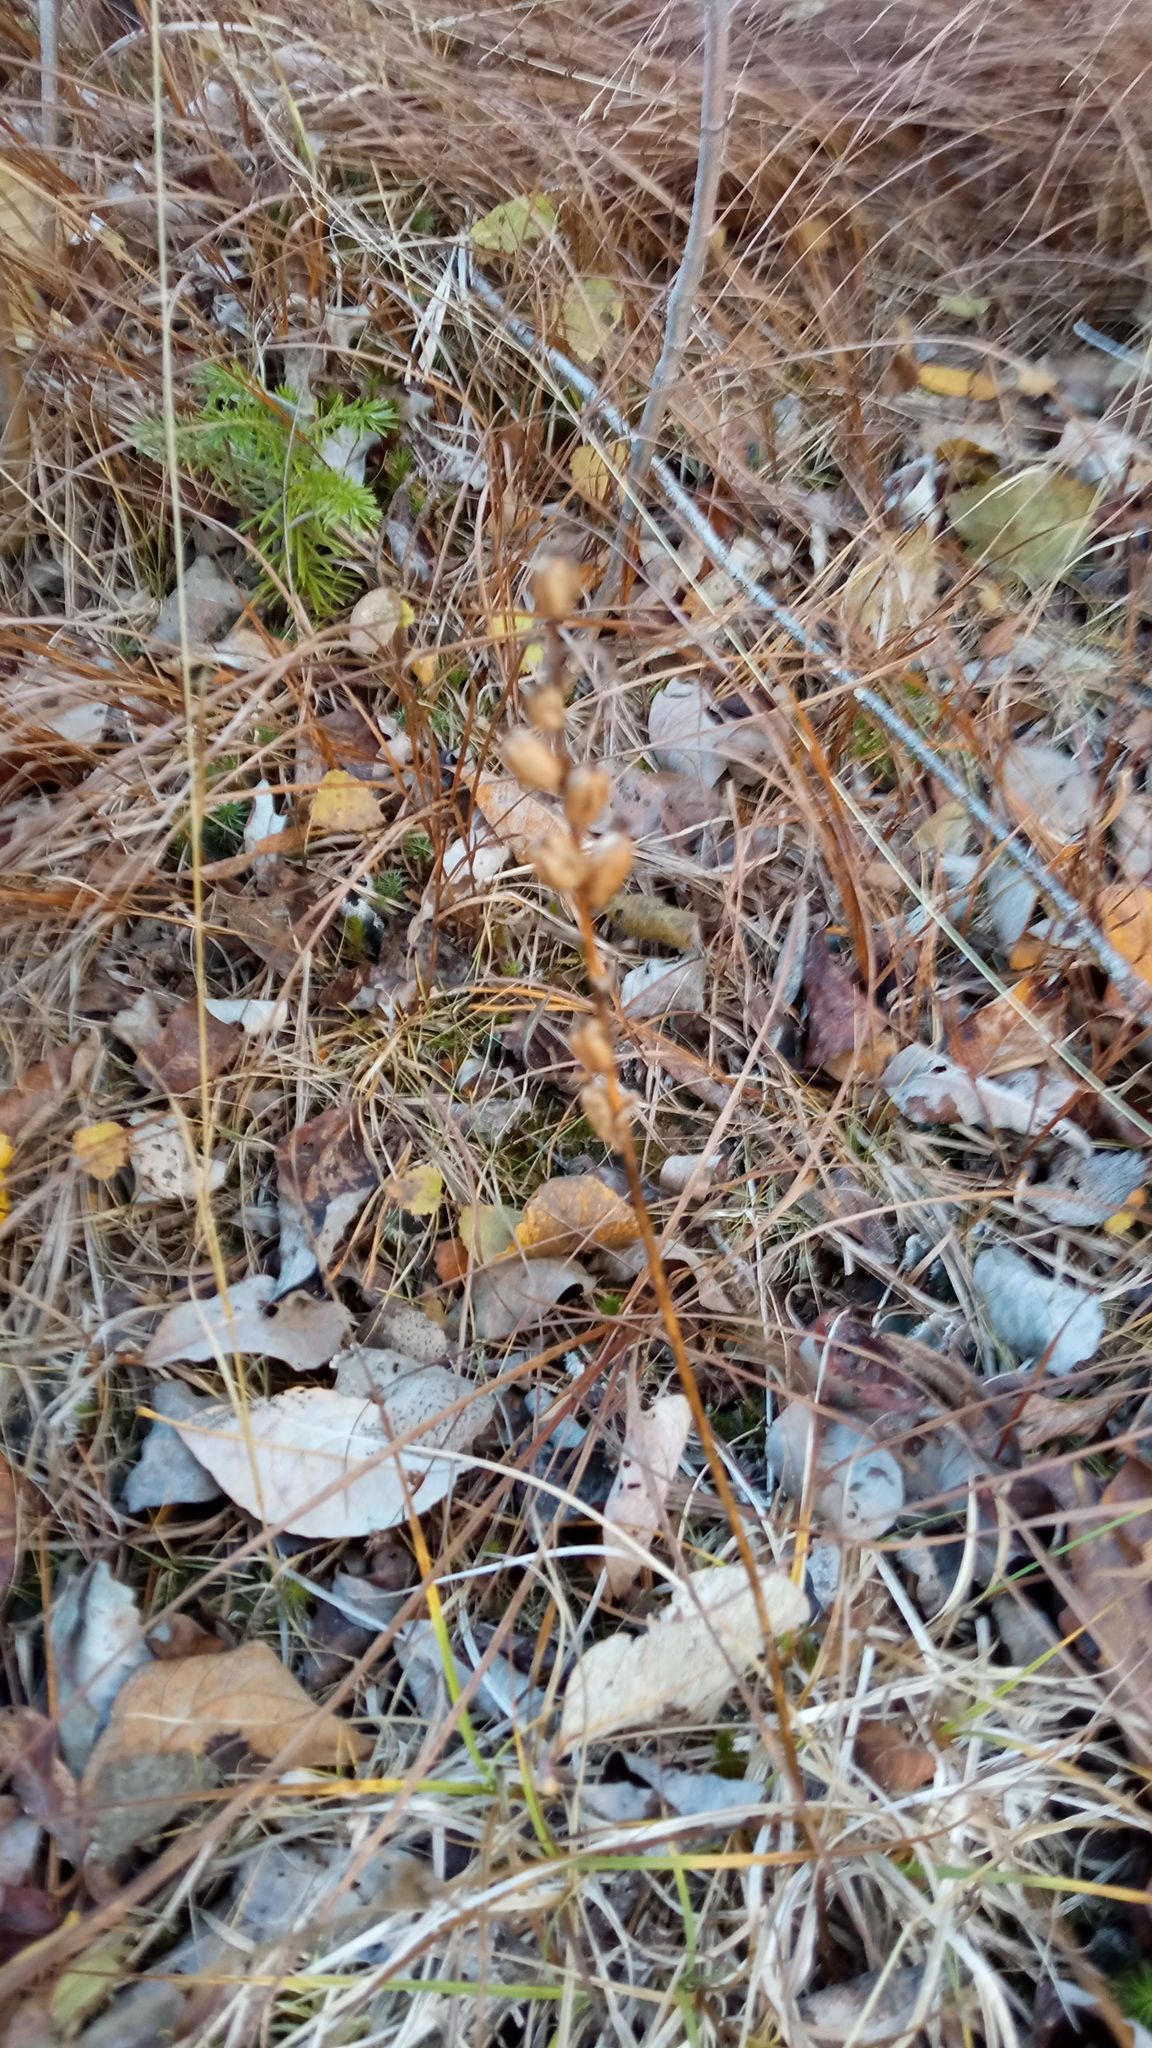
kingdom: Plantae
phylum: Tracheophyta
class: Liliopsida
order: Asparagales
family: Orchidaceae
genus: Malaxis
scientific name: Malaxis monophyllos
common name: White adder's-mouth
